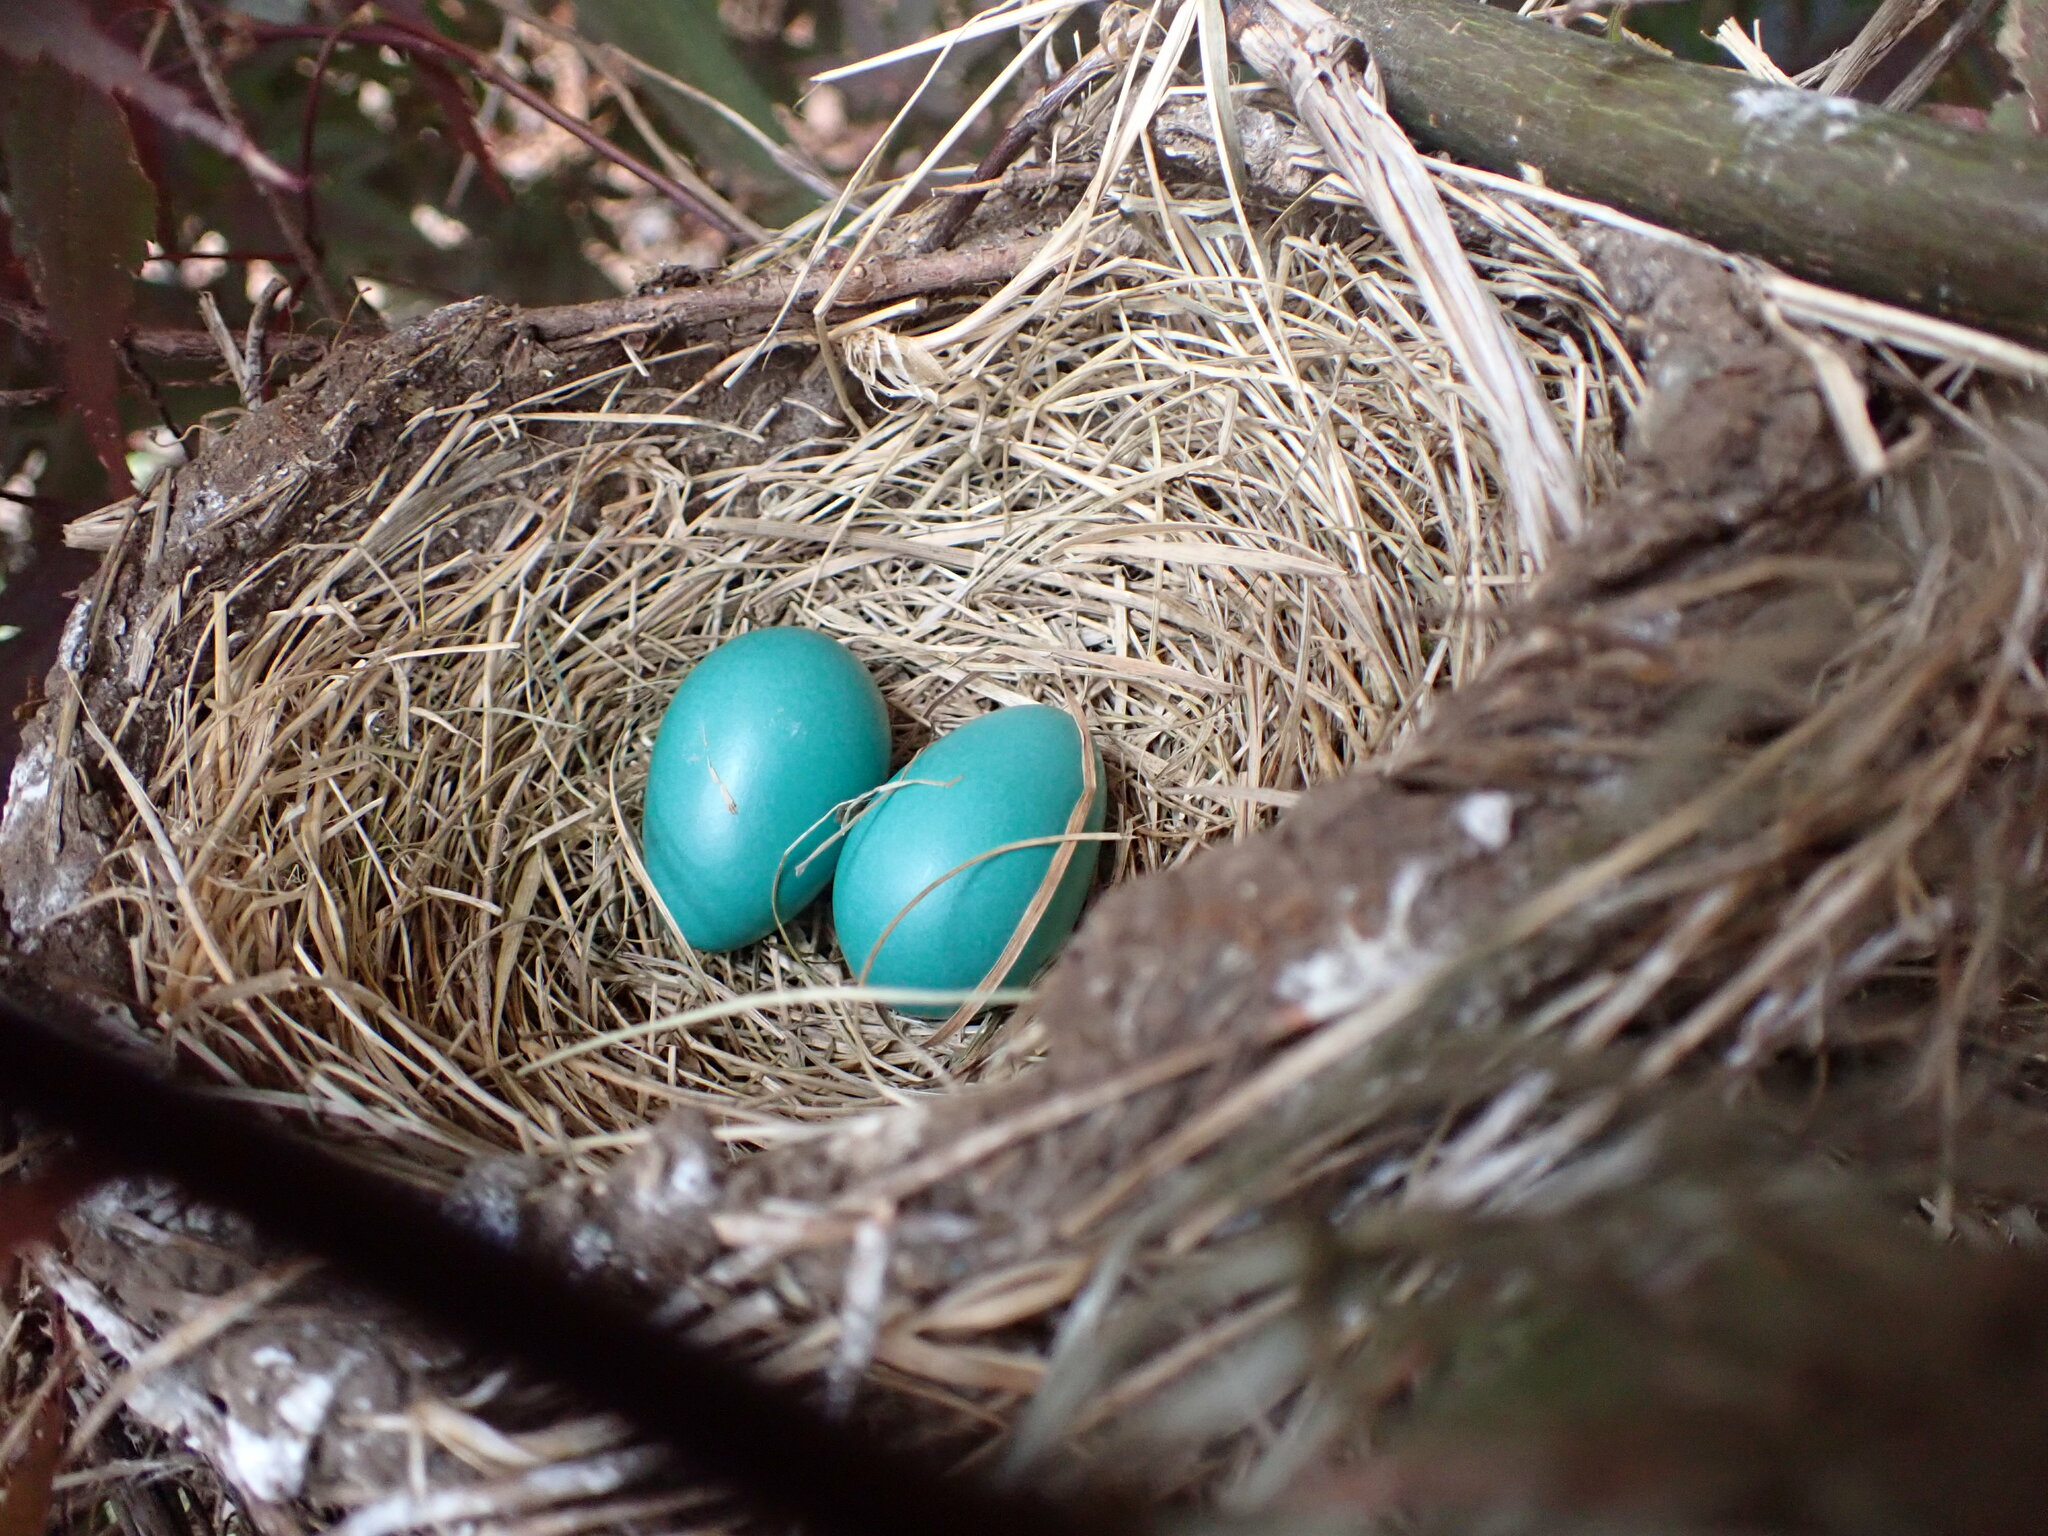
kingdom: Animalia
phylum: Chordata
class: Aves
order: Passeriformes
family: Turdidae
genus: Turdus
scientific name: Turdus migratorius
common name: American robin
